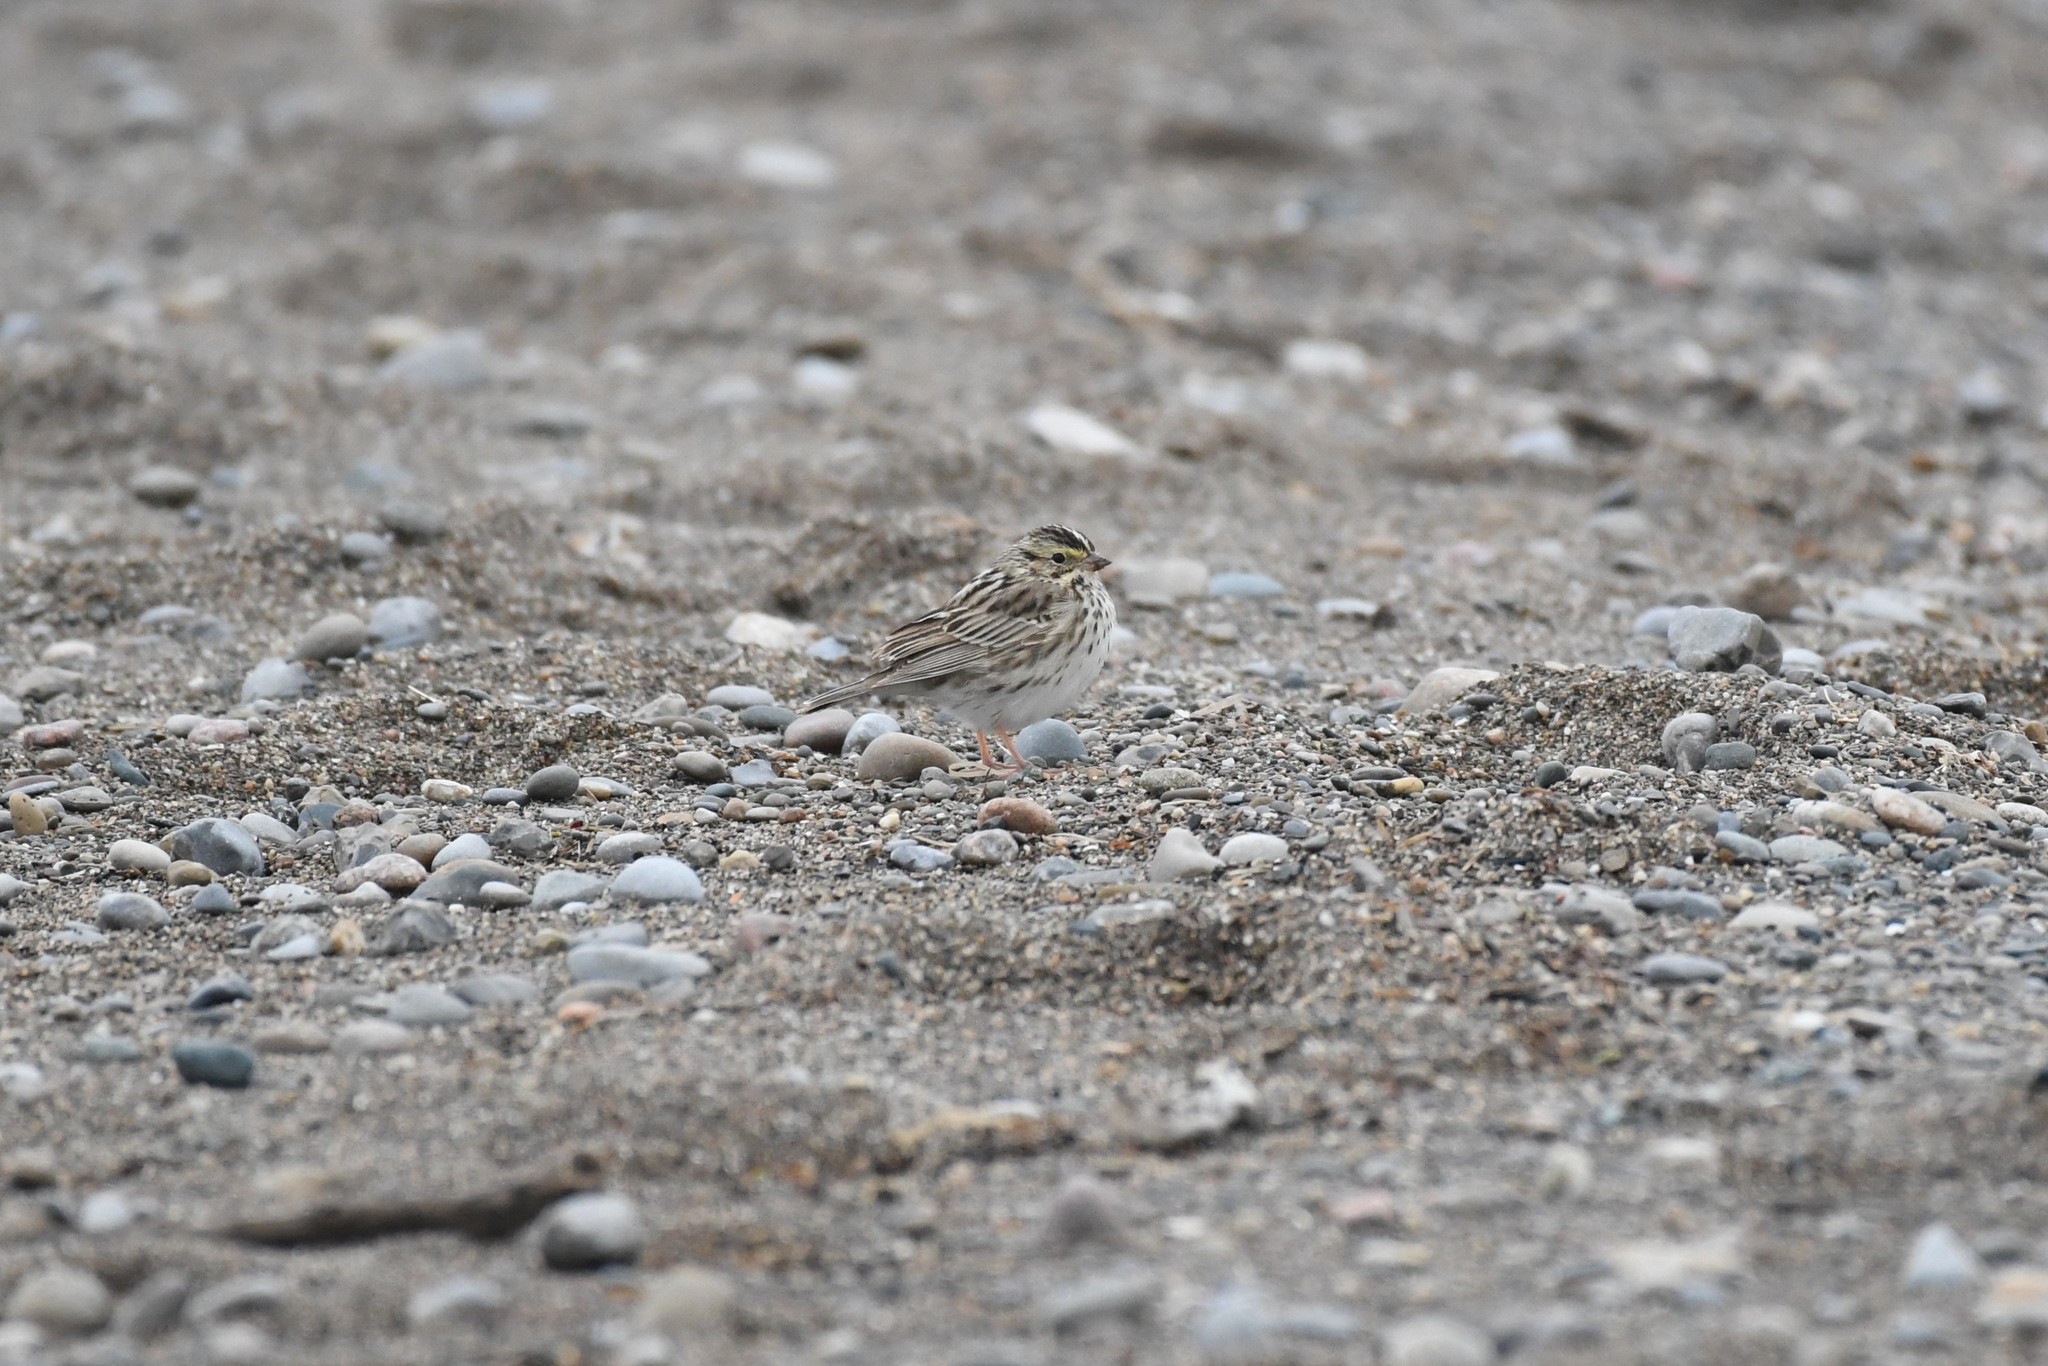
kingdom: Animalia
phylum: Chordata
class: Aves
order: Passeriformes
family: Passerellidae
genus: Passerculus
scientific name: Passerculus sandwichensis
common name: Savannah sparrow
